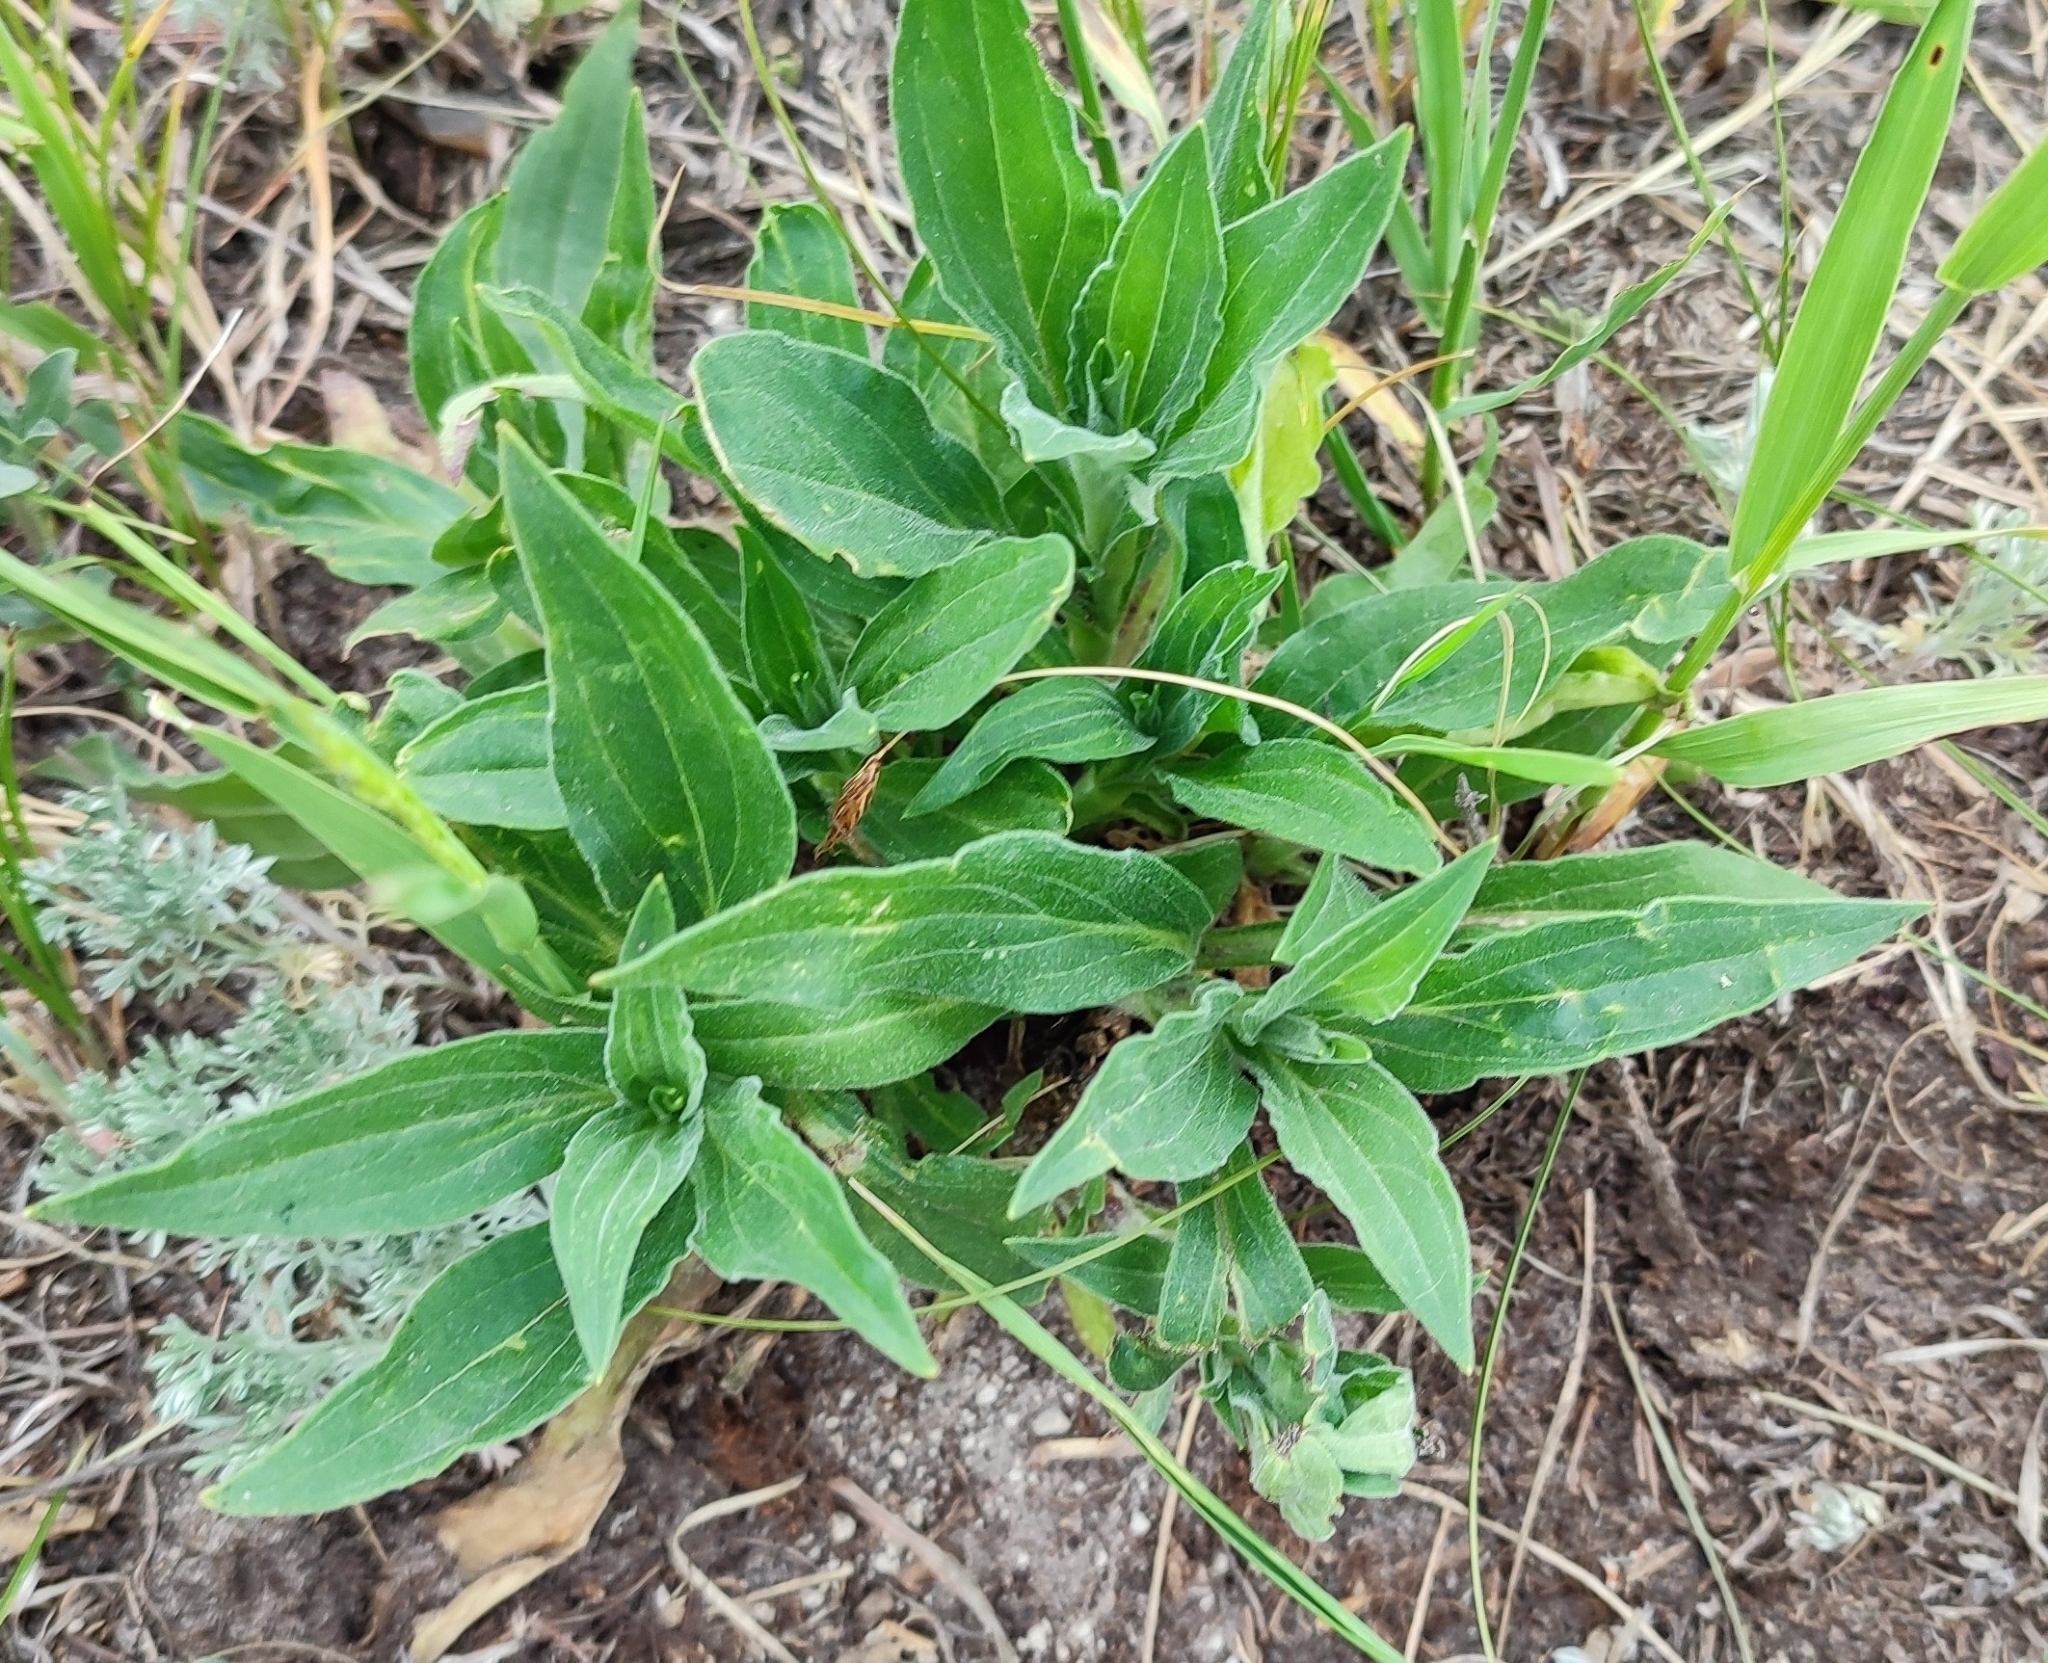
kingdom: Plantae
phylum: Tracheophyta
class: Magnoliopsida
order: Caryophyllales
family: Caryophyllaceae
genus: Silene
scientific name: Silene latifolia
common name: White campion
